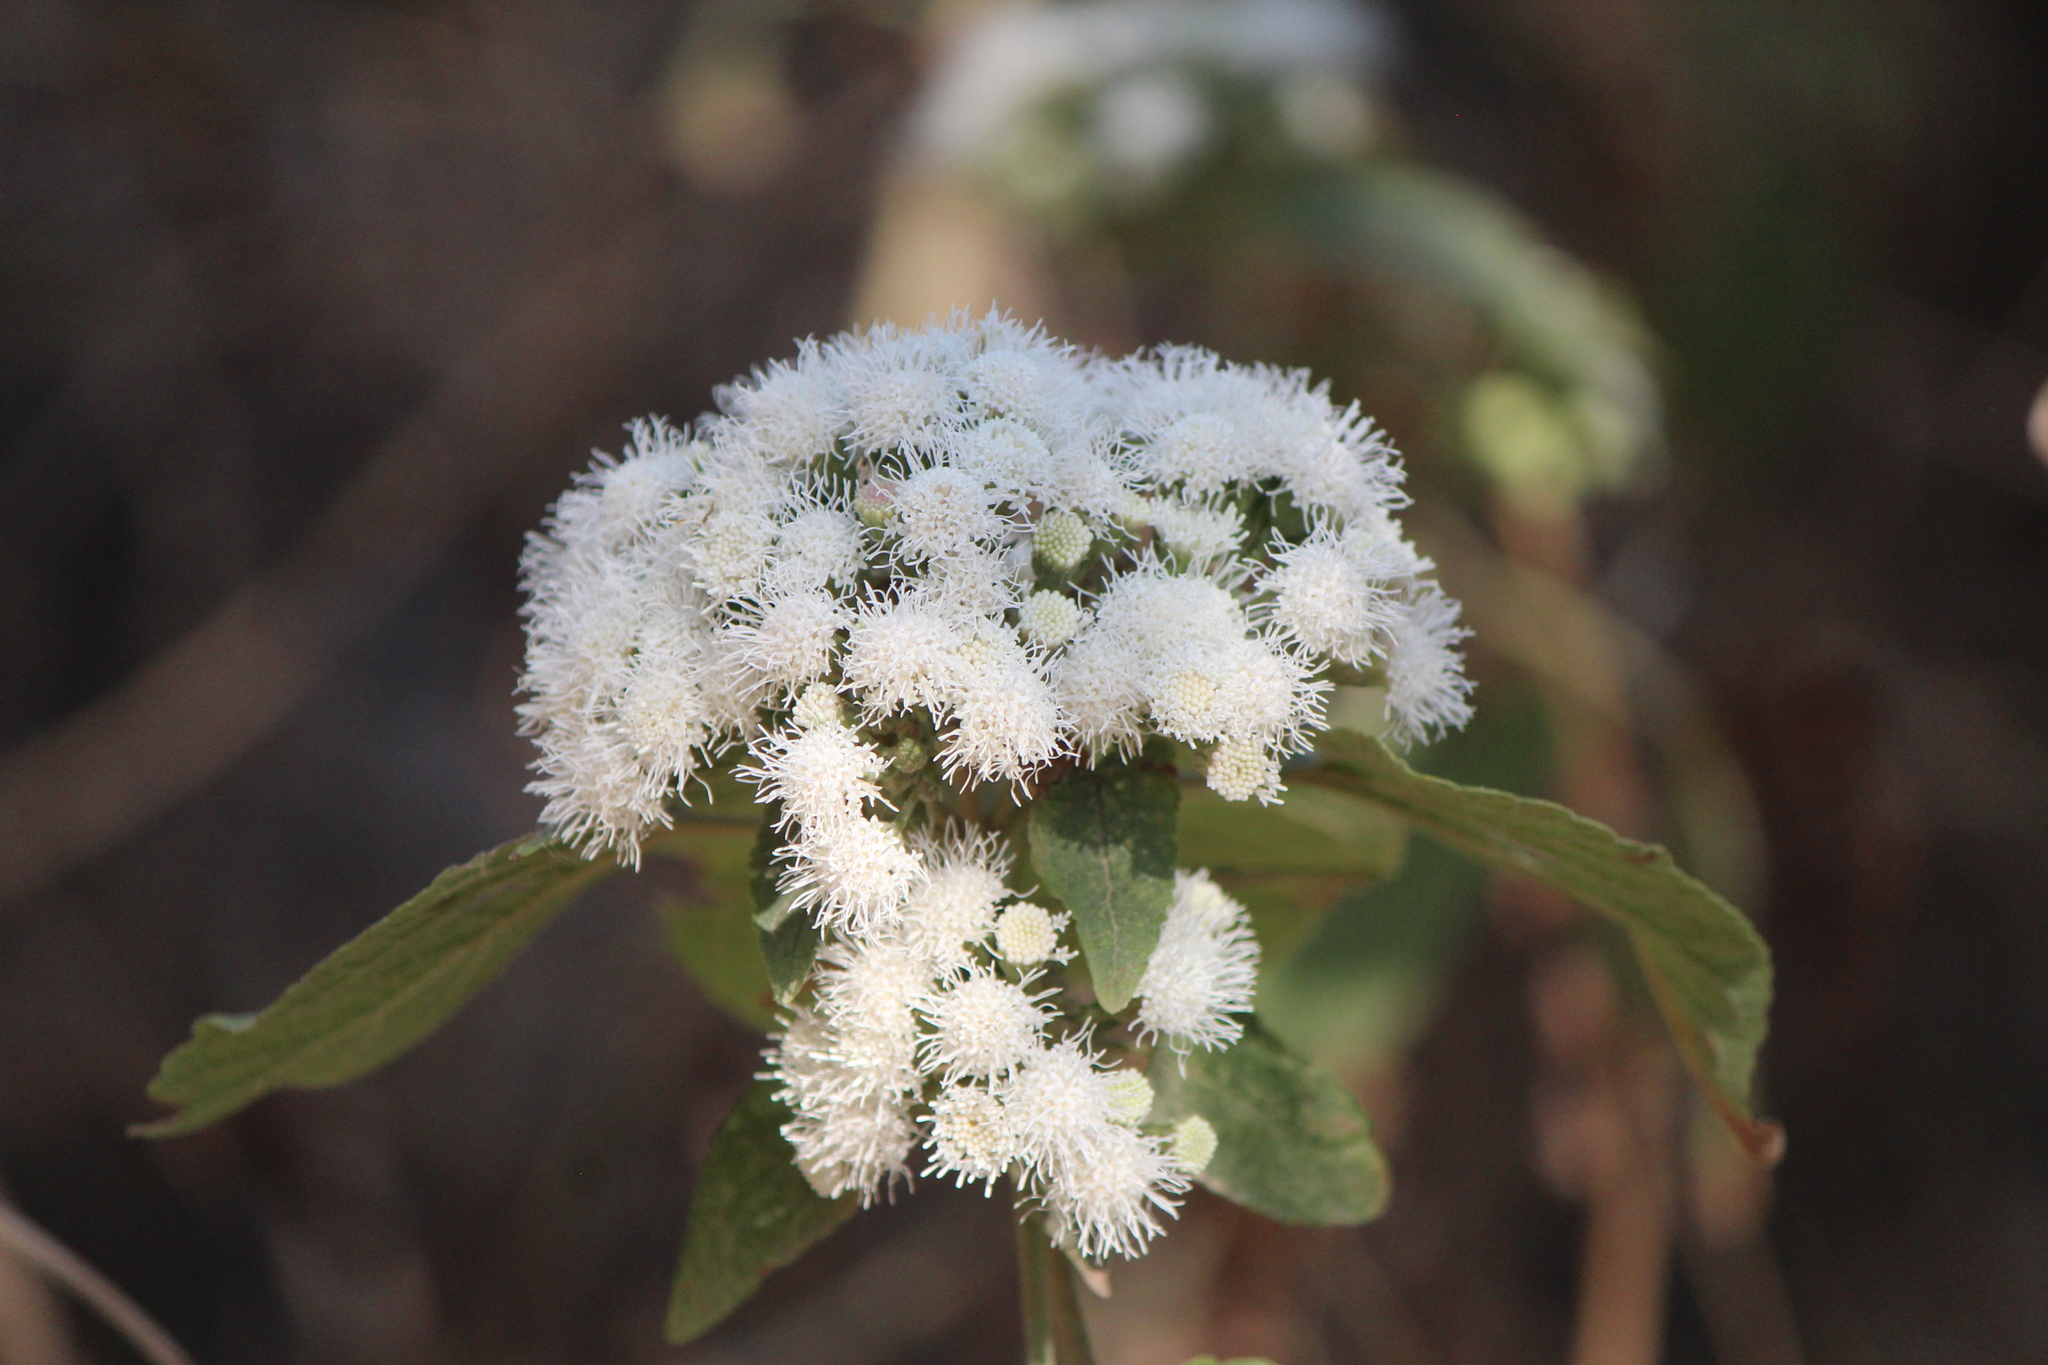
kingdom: Plantae
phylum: Tracheophyta
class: Magnoliopsida
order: Asterales
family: Asteraceae
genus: Ageratina
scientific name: Ageratina petiolaris
